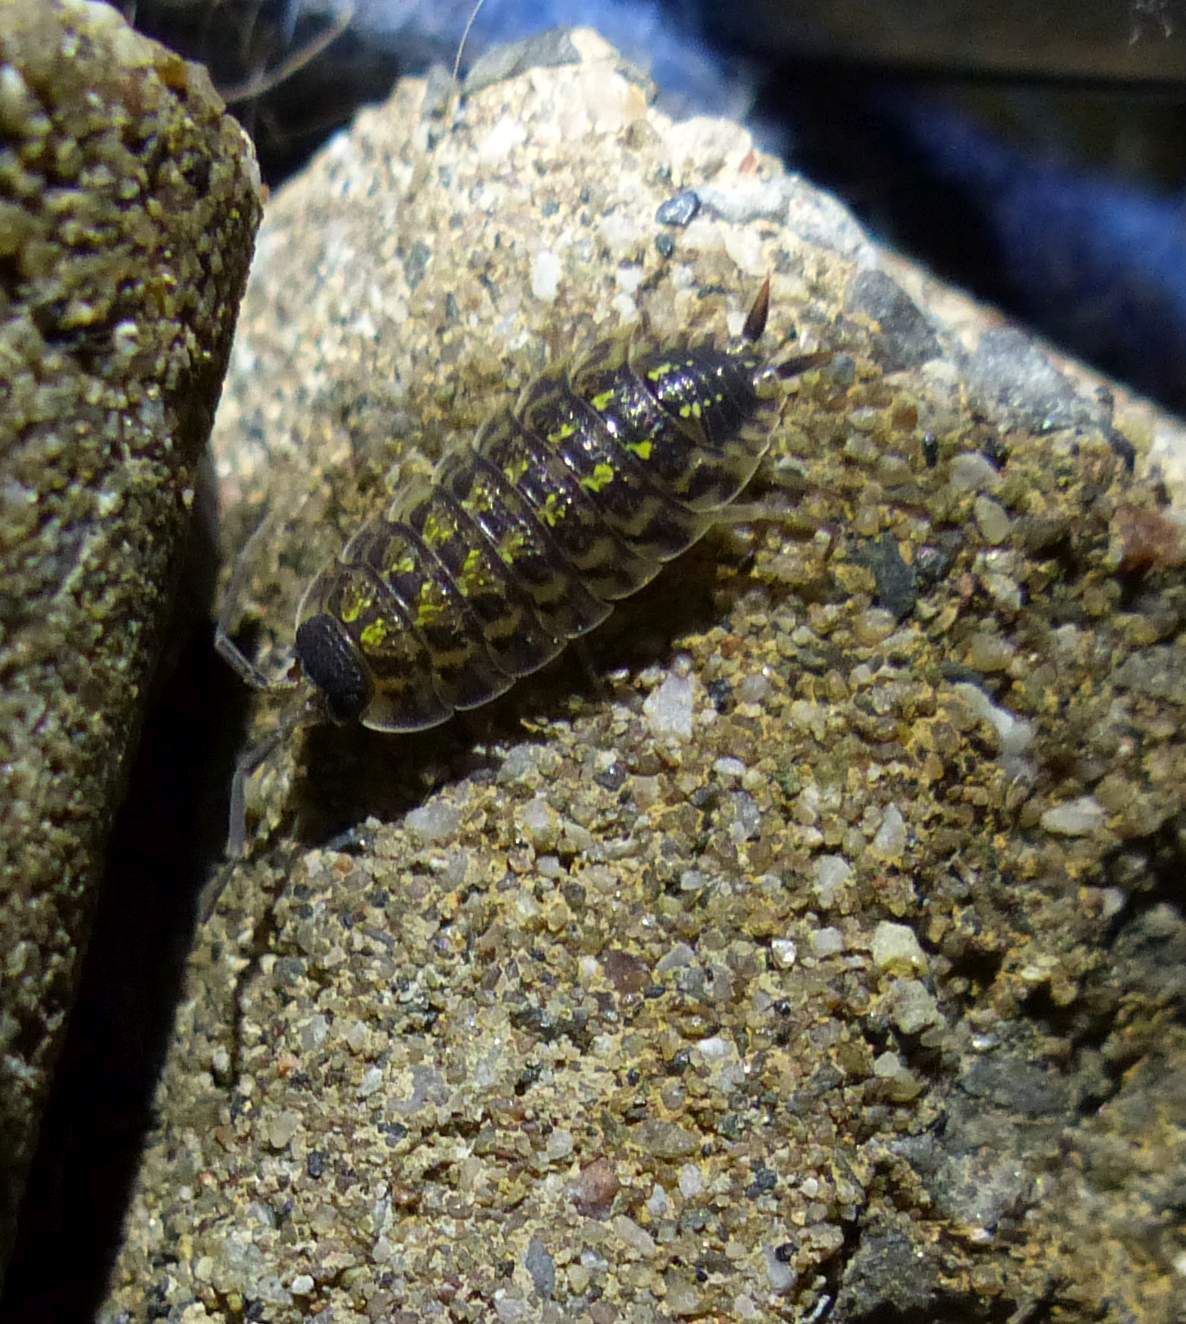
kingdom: Animalia
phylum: Arthropoda
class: Malacostraca
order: Isopoda
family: Porcellionidae
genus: Porcellio
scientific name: Porcellio spinicornis
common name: Painted woodlouse
